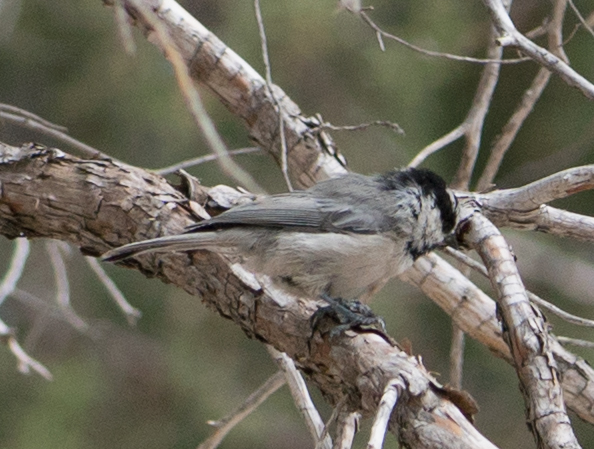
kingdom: Animalia
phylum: Chordata
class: Aves
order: Passeriformes
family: Paridae
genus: Poecile
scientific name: Poecile gambeli
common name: Mountain chickadee
